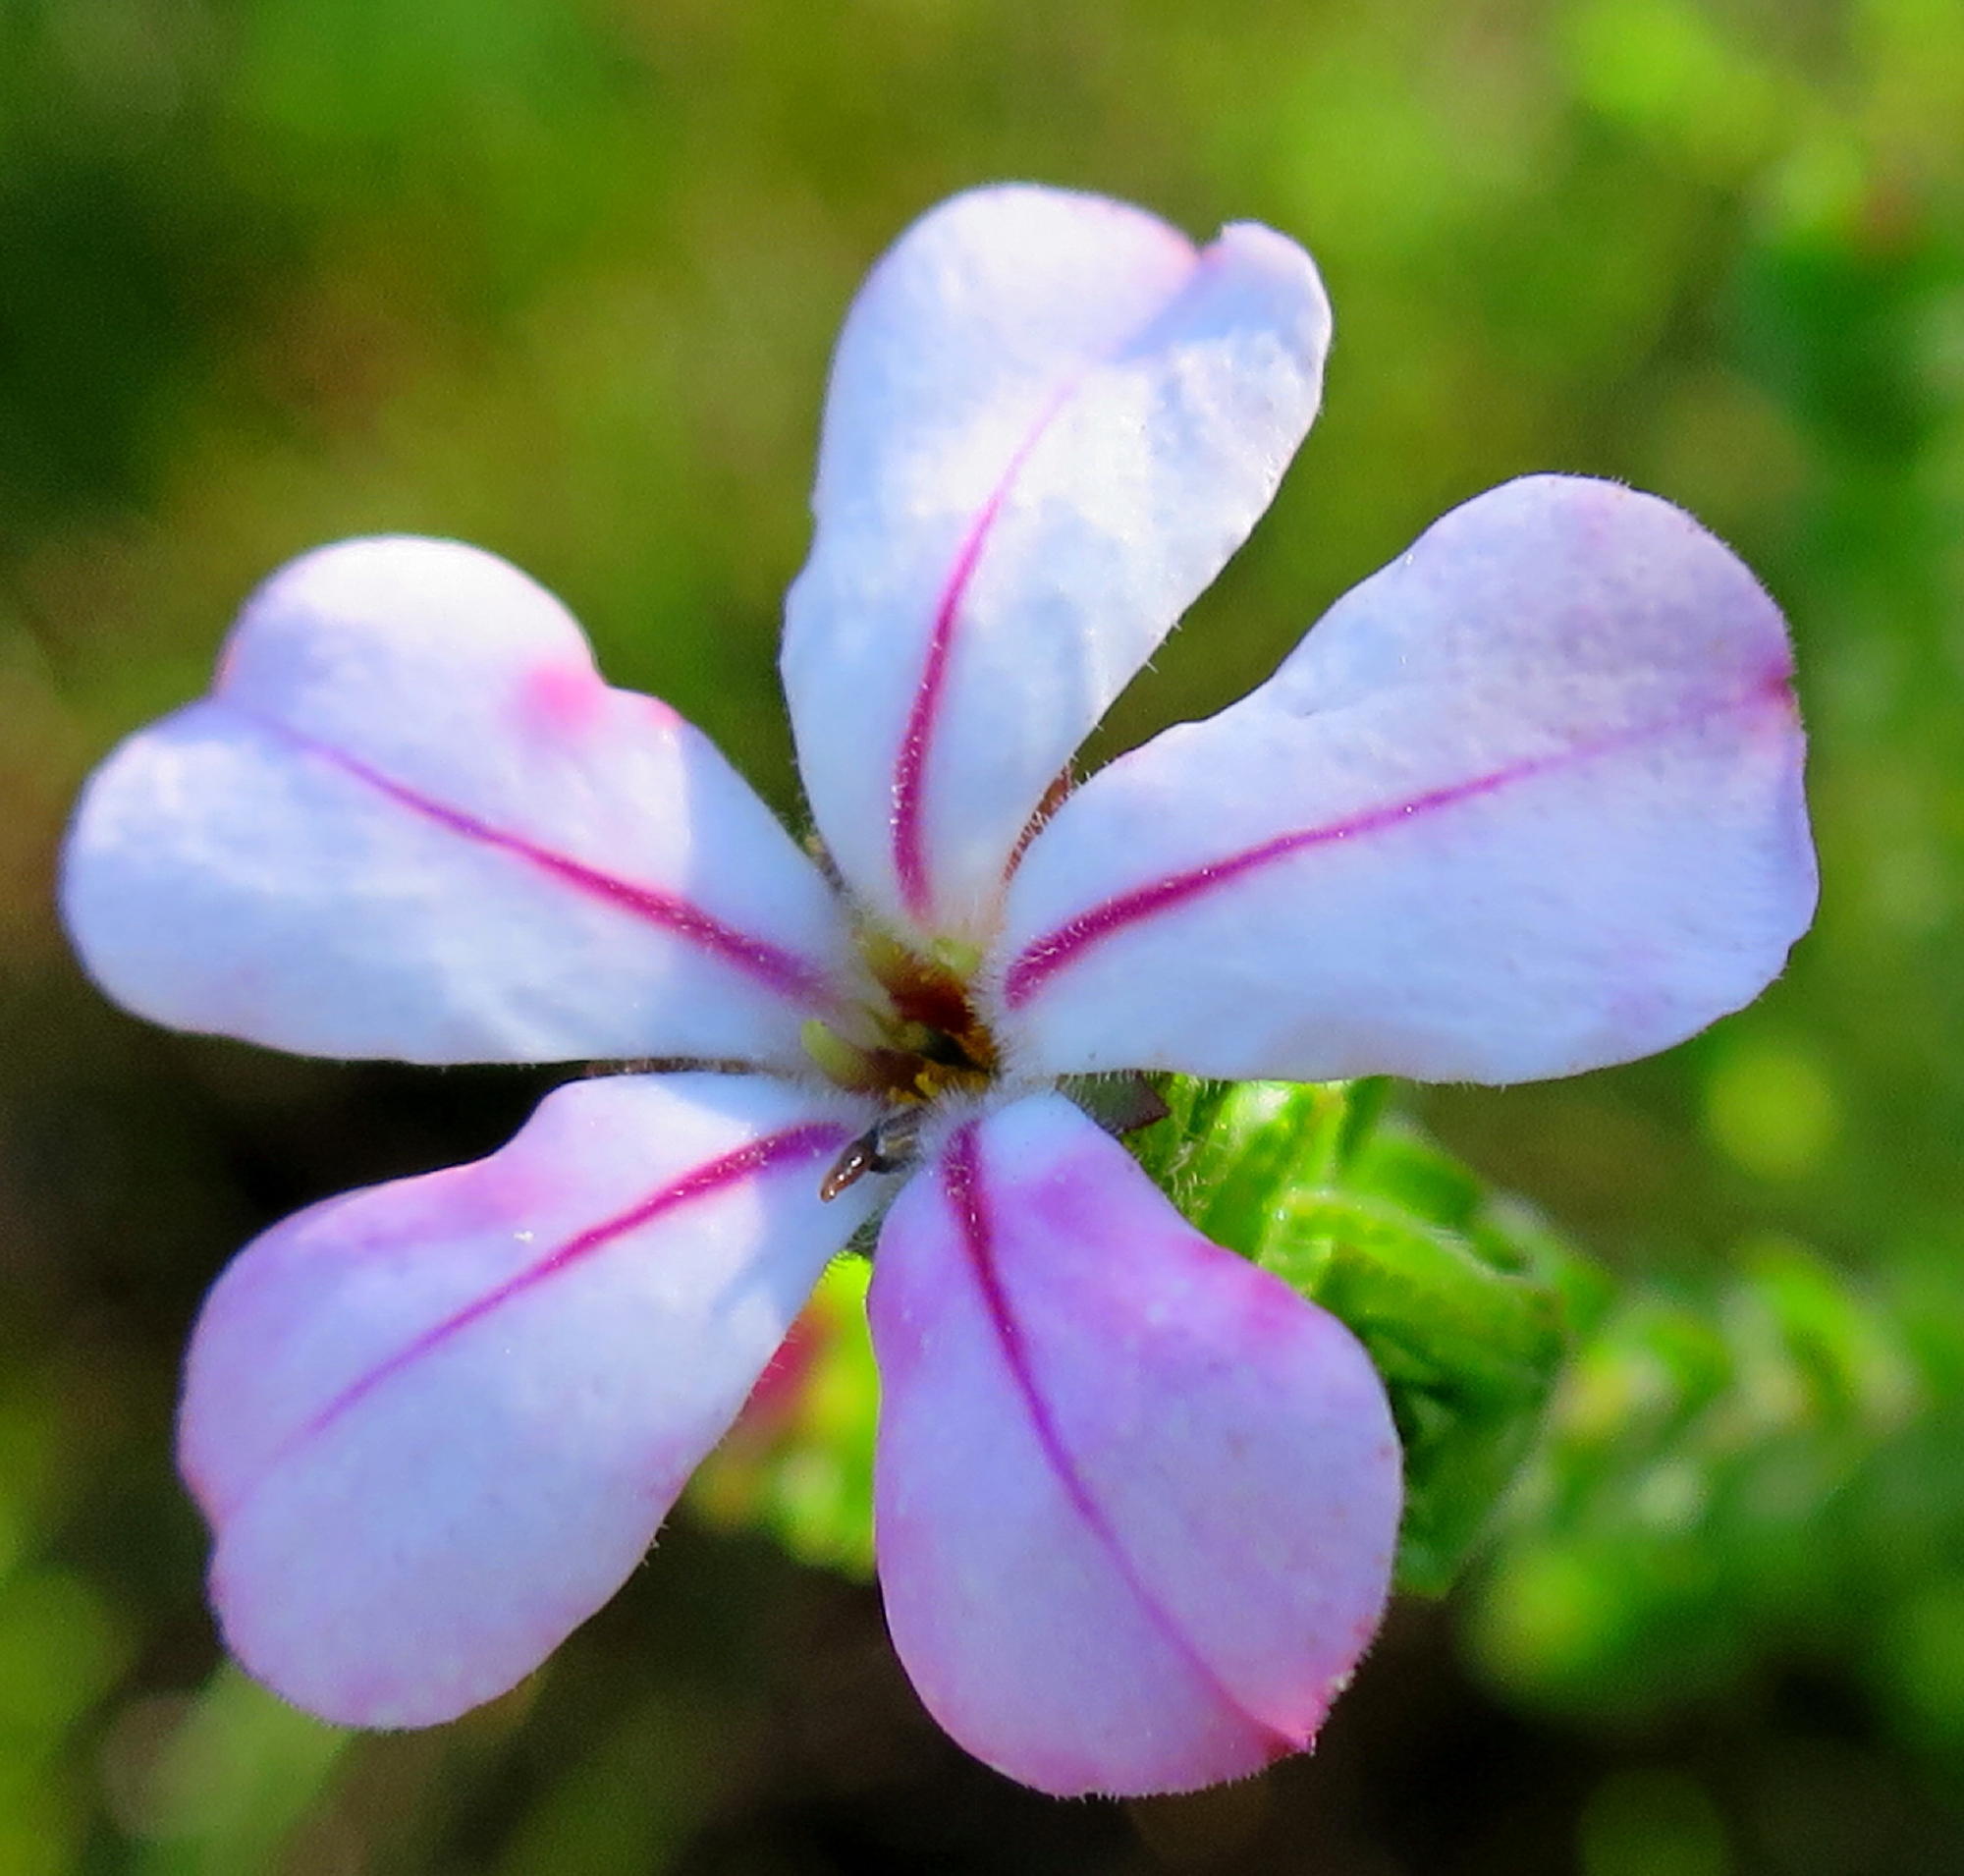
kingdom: Plantae
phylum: Tracheophyta
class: Magnoliopsida
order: Sapindales
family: Rutaceae
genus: Acmadenia
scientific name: Acmadenia tetragona
